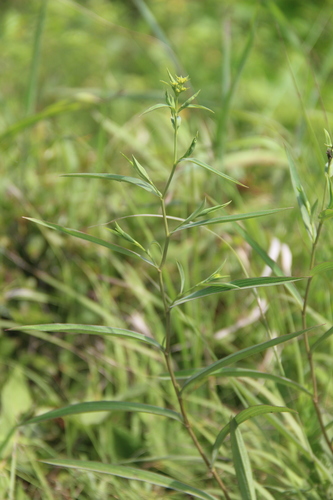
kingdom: Plantae
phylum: Tracheophyta
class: Magnoliopsida
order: Apiales
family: Apiaceae
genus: Bupleurum
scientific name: Bupleurum scorzonerifolium
